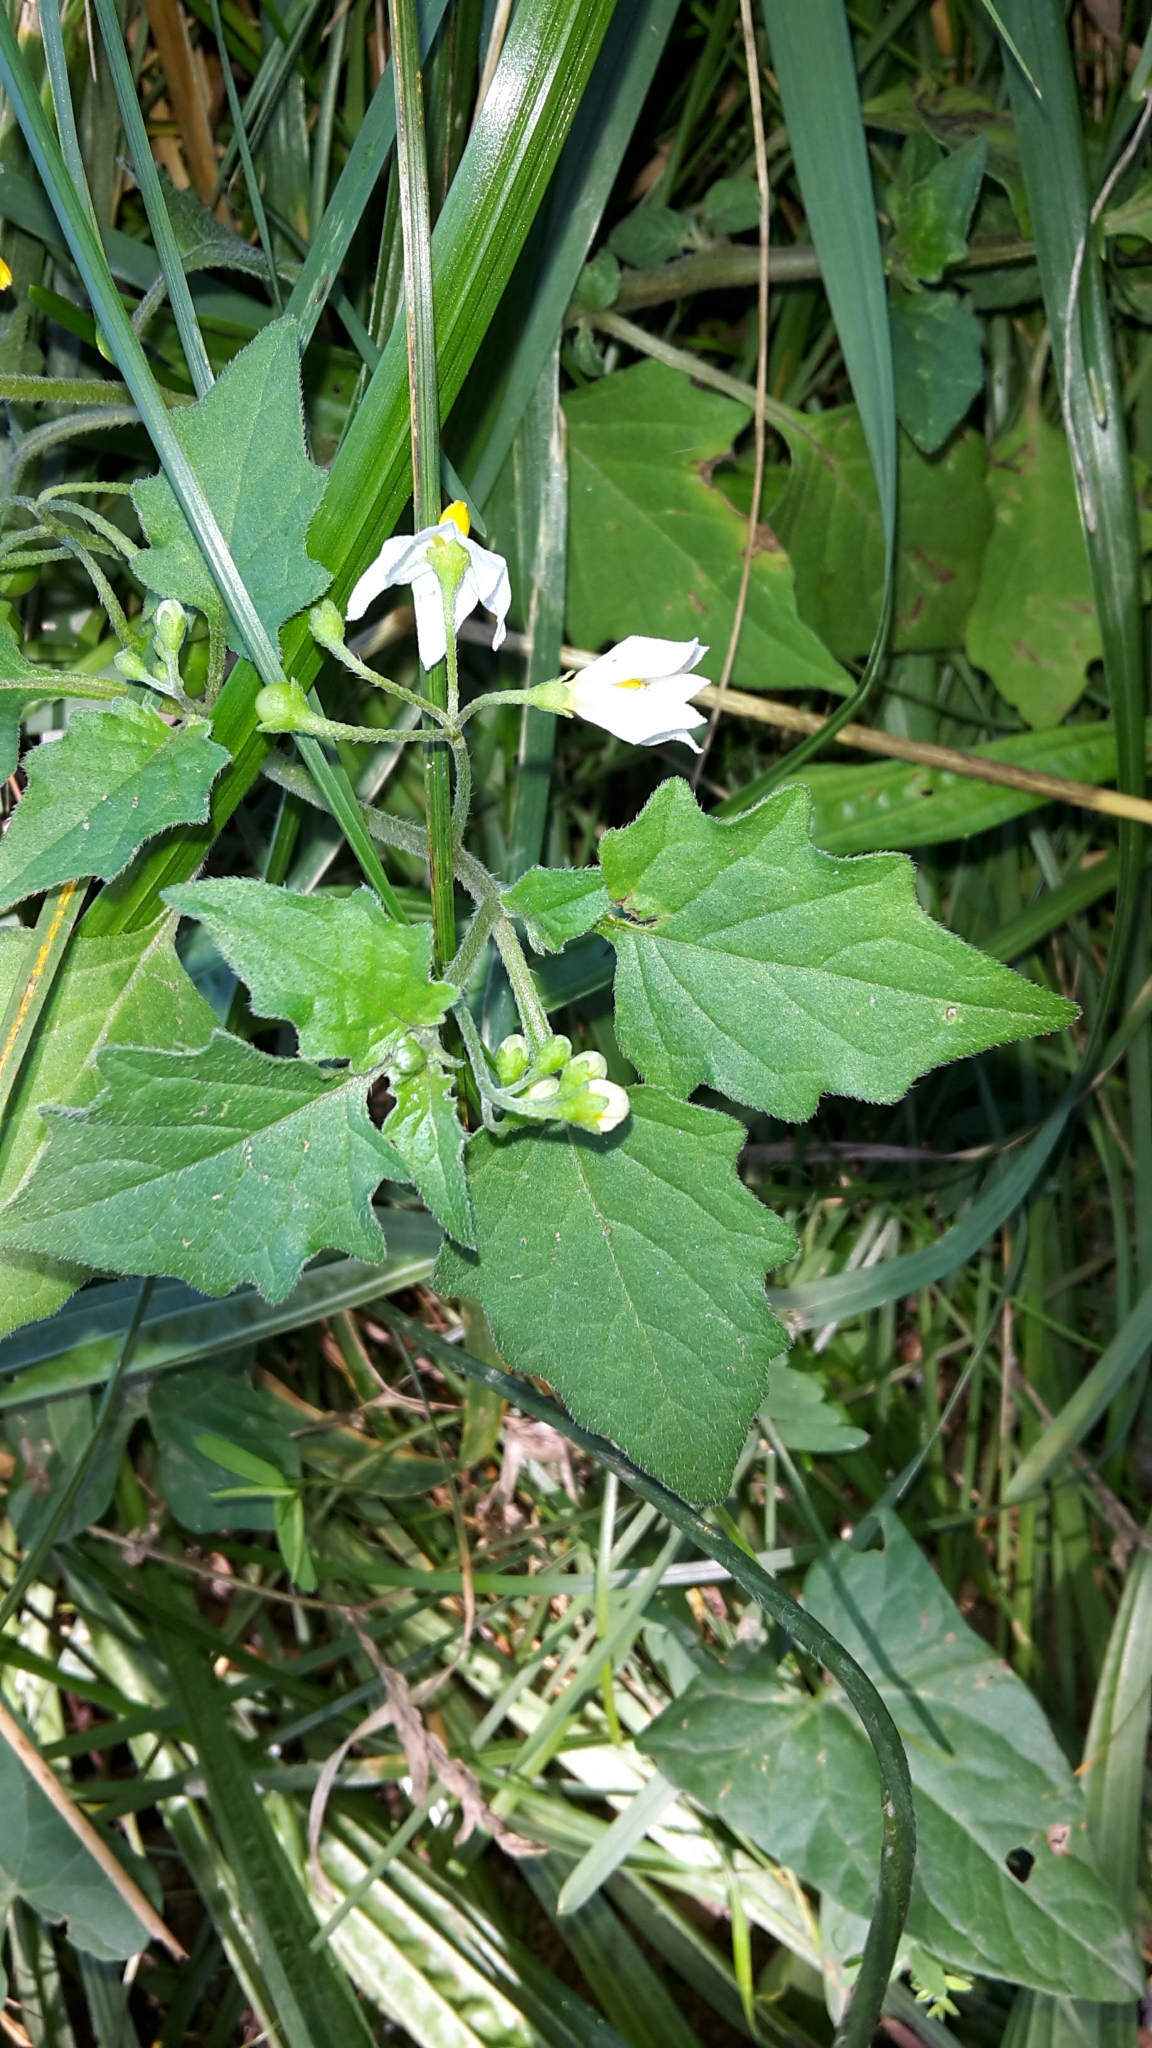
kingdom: Plantae
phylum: Tracheophyta
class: Magnoliopsida
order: Solanales
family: Solanaceae
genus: Solanum
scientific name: Solanum nigrum
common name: Black nightshade
